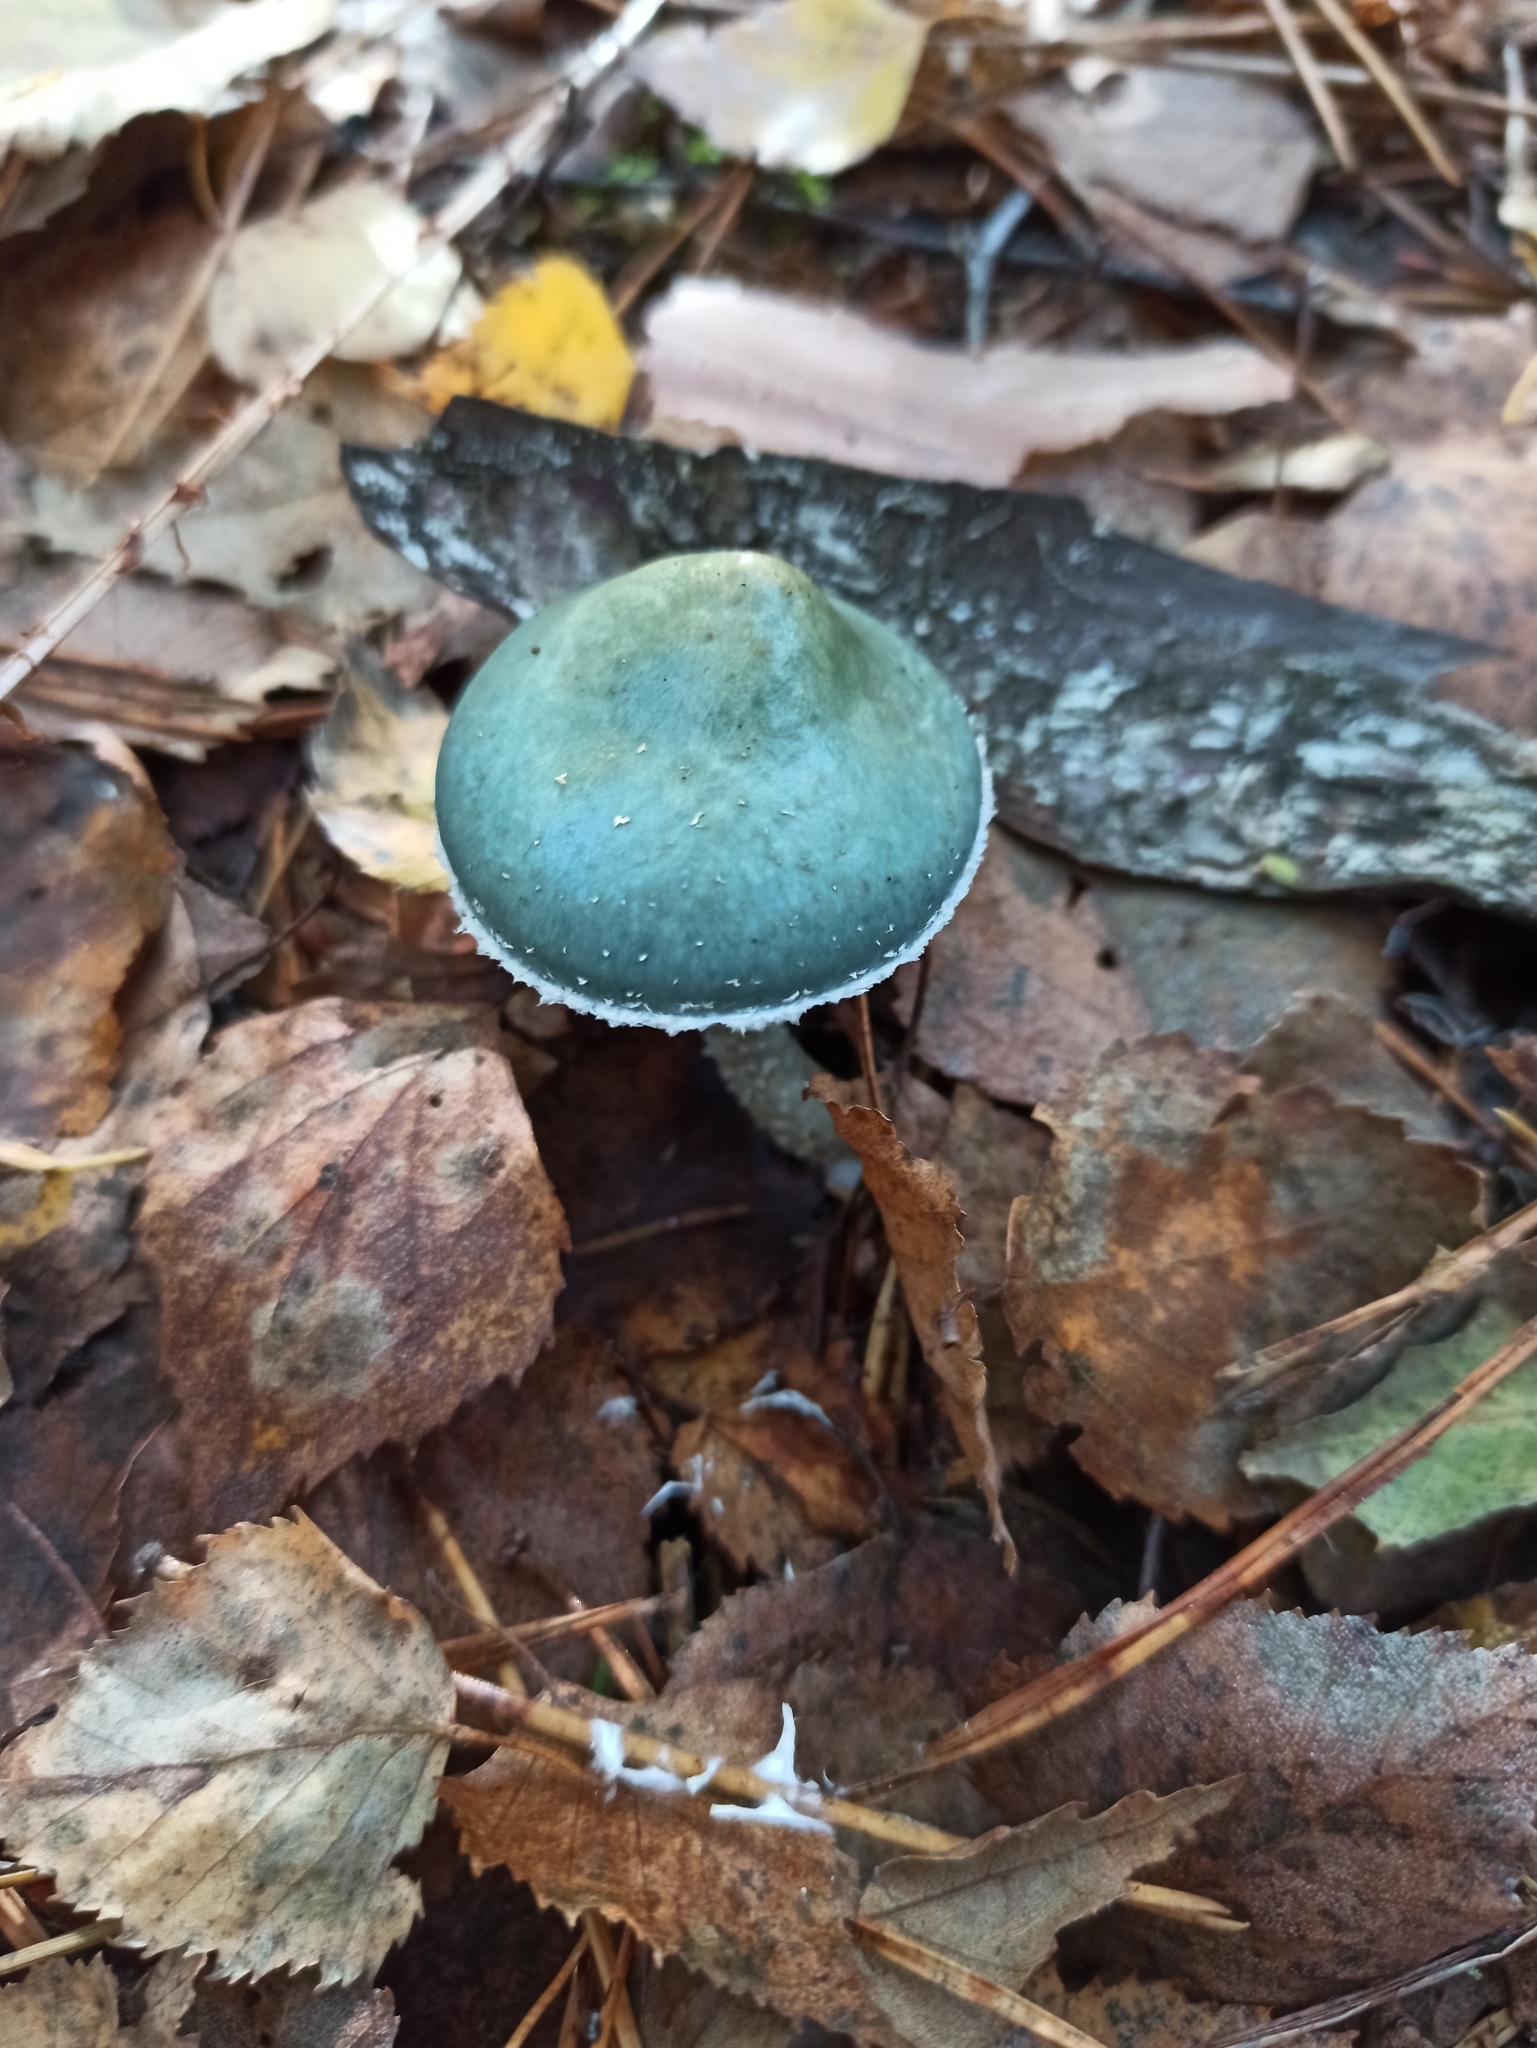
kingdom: Fungi
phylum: Basidiomycota
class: Agaricomycetes
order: Agaricales
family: Strophariaceae
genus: Stropharia
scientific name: Stropharia aeruginosa
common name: Verdigris roundhead
